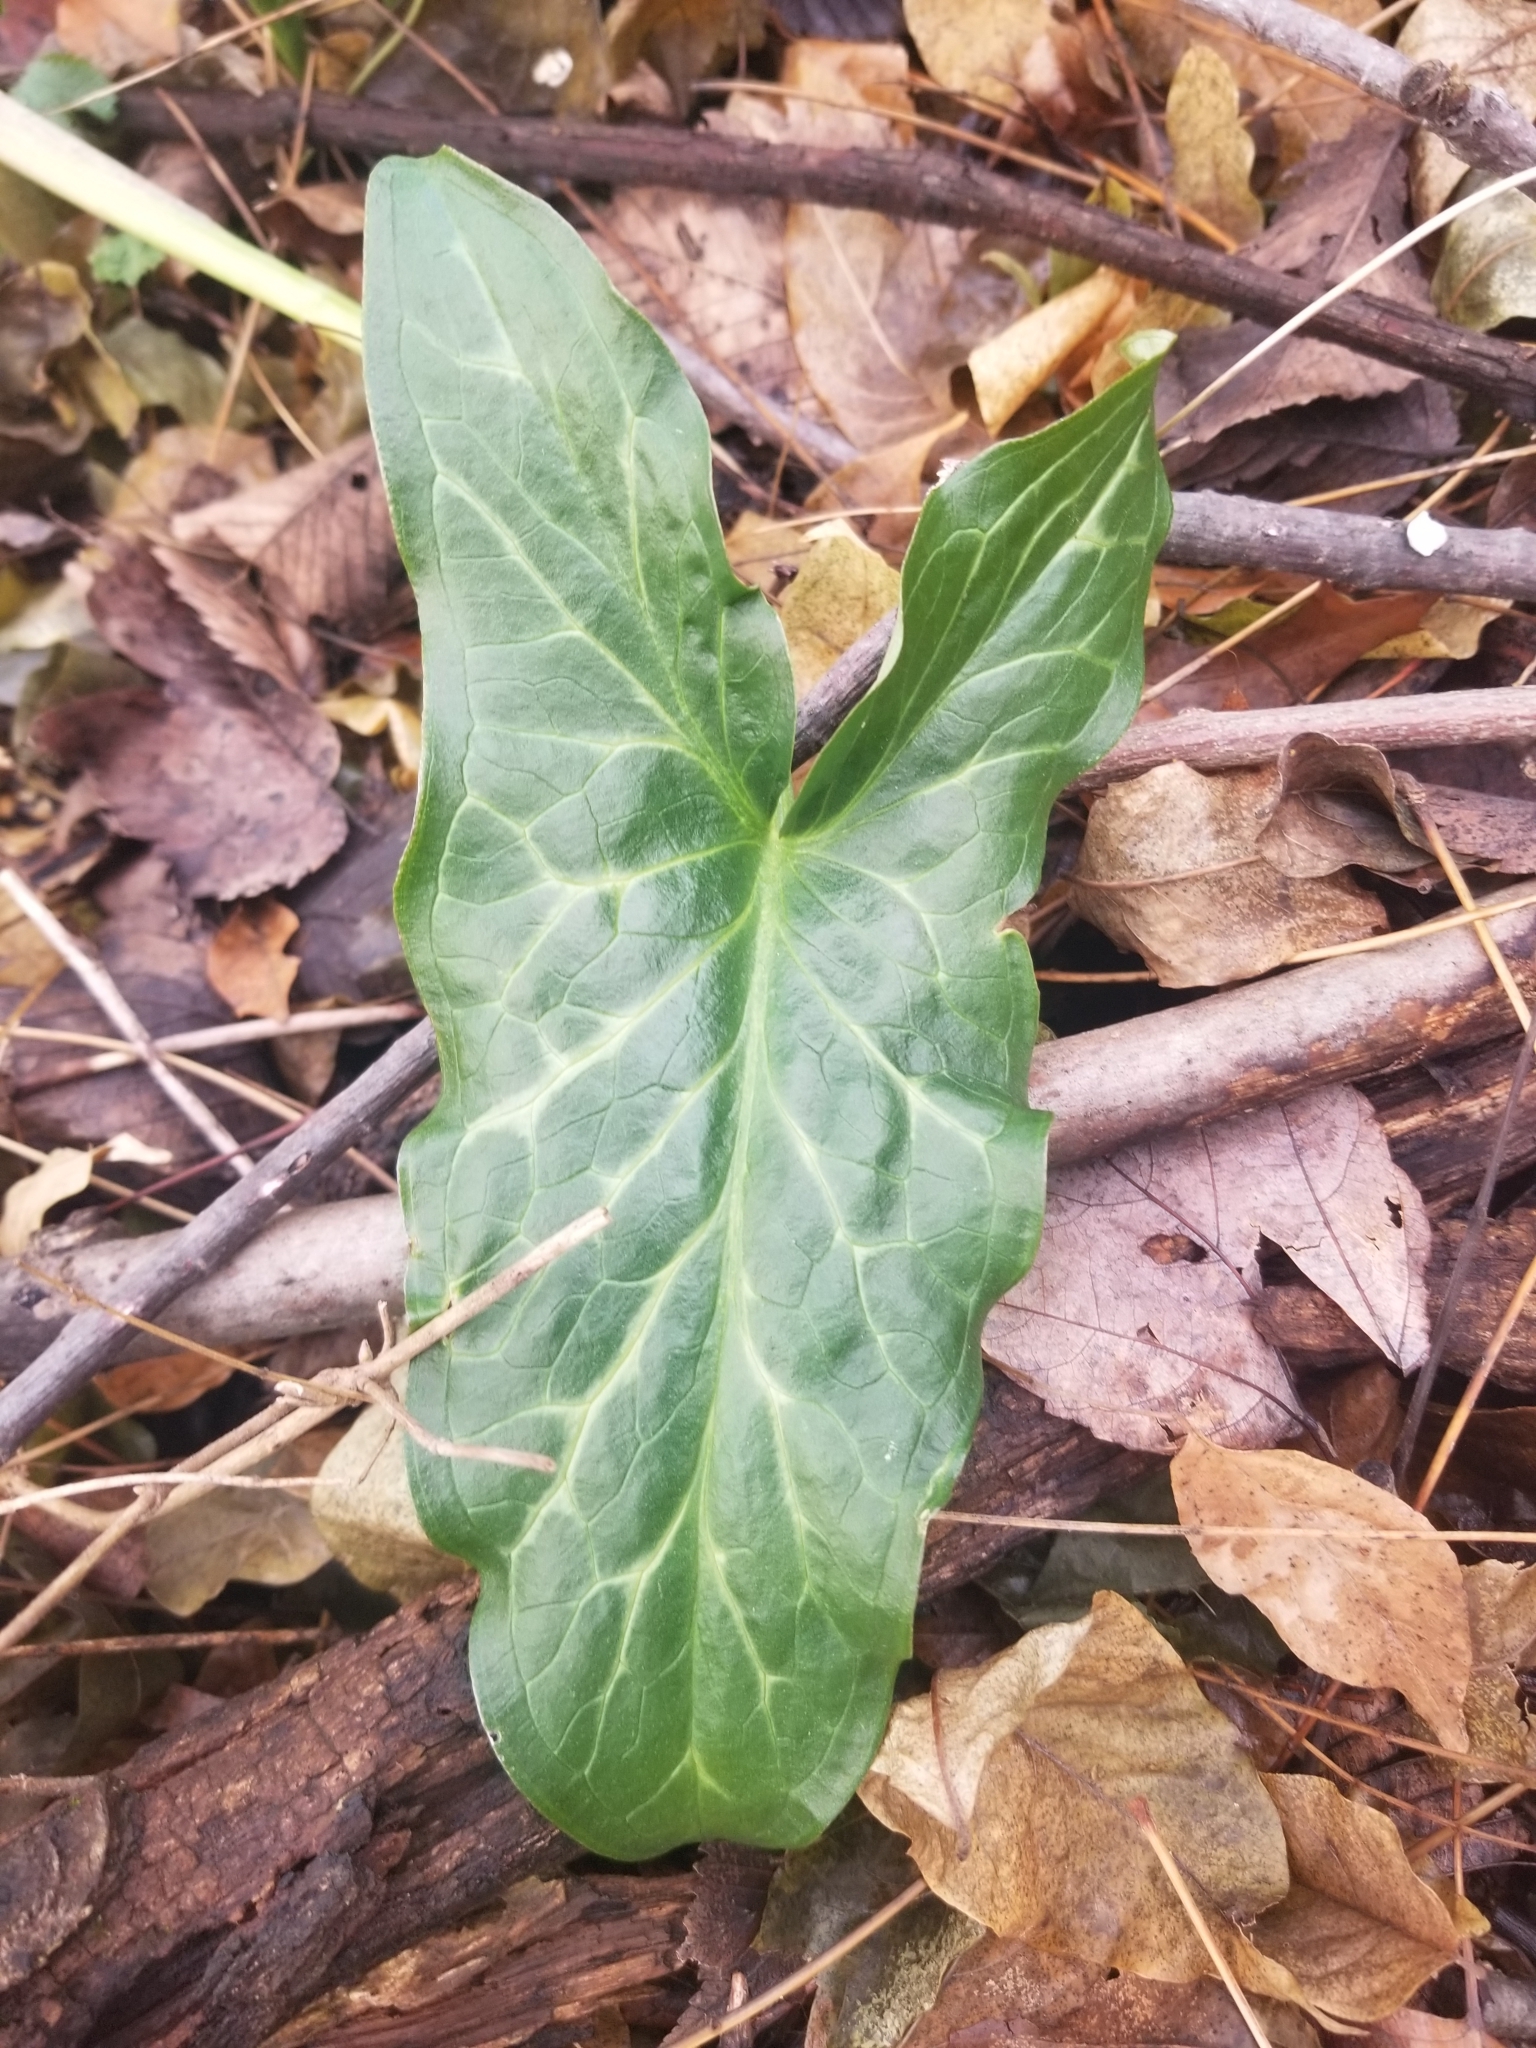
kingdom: Plantae
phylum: Tracheophyta
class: Liliopsida
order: Alismatales
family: Araceae
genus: Arum
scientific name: Arum italicum
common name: Italian lords-and-ladies
